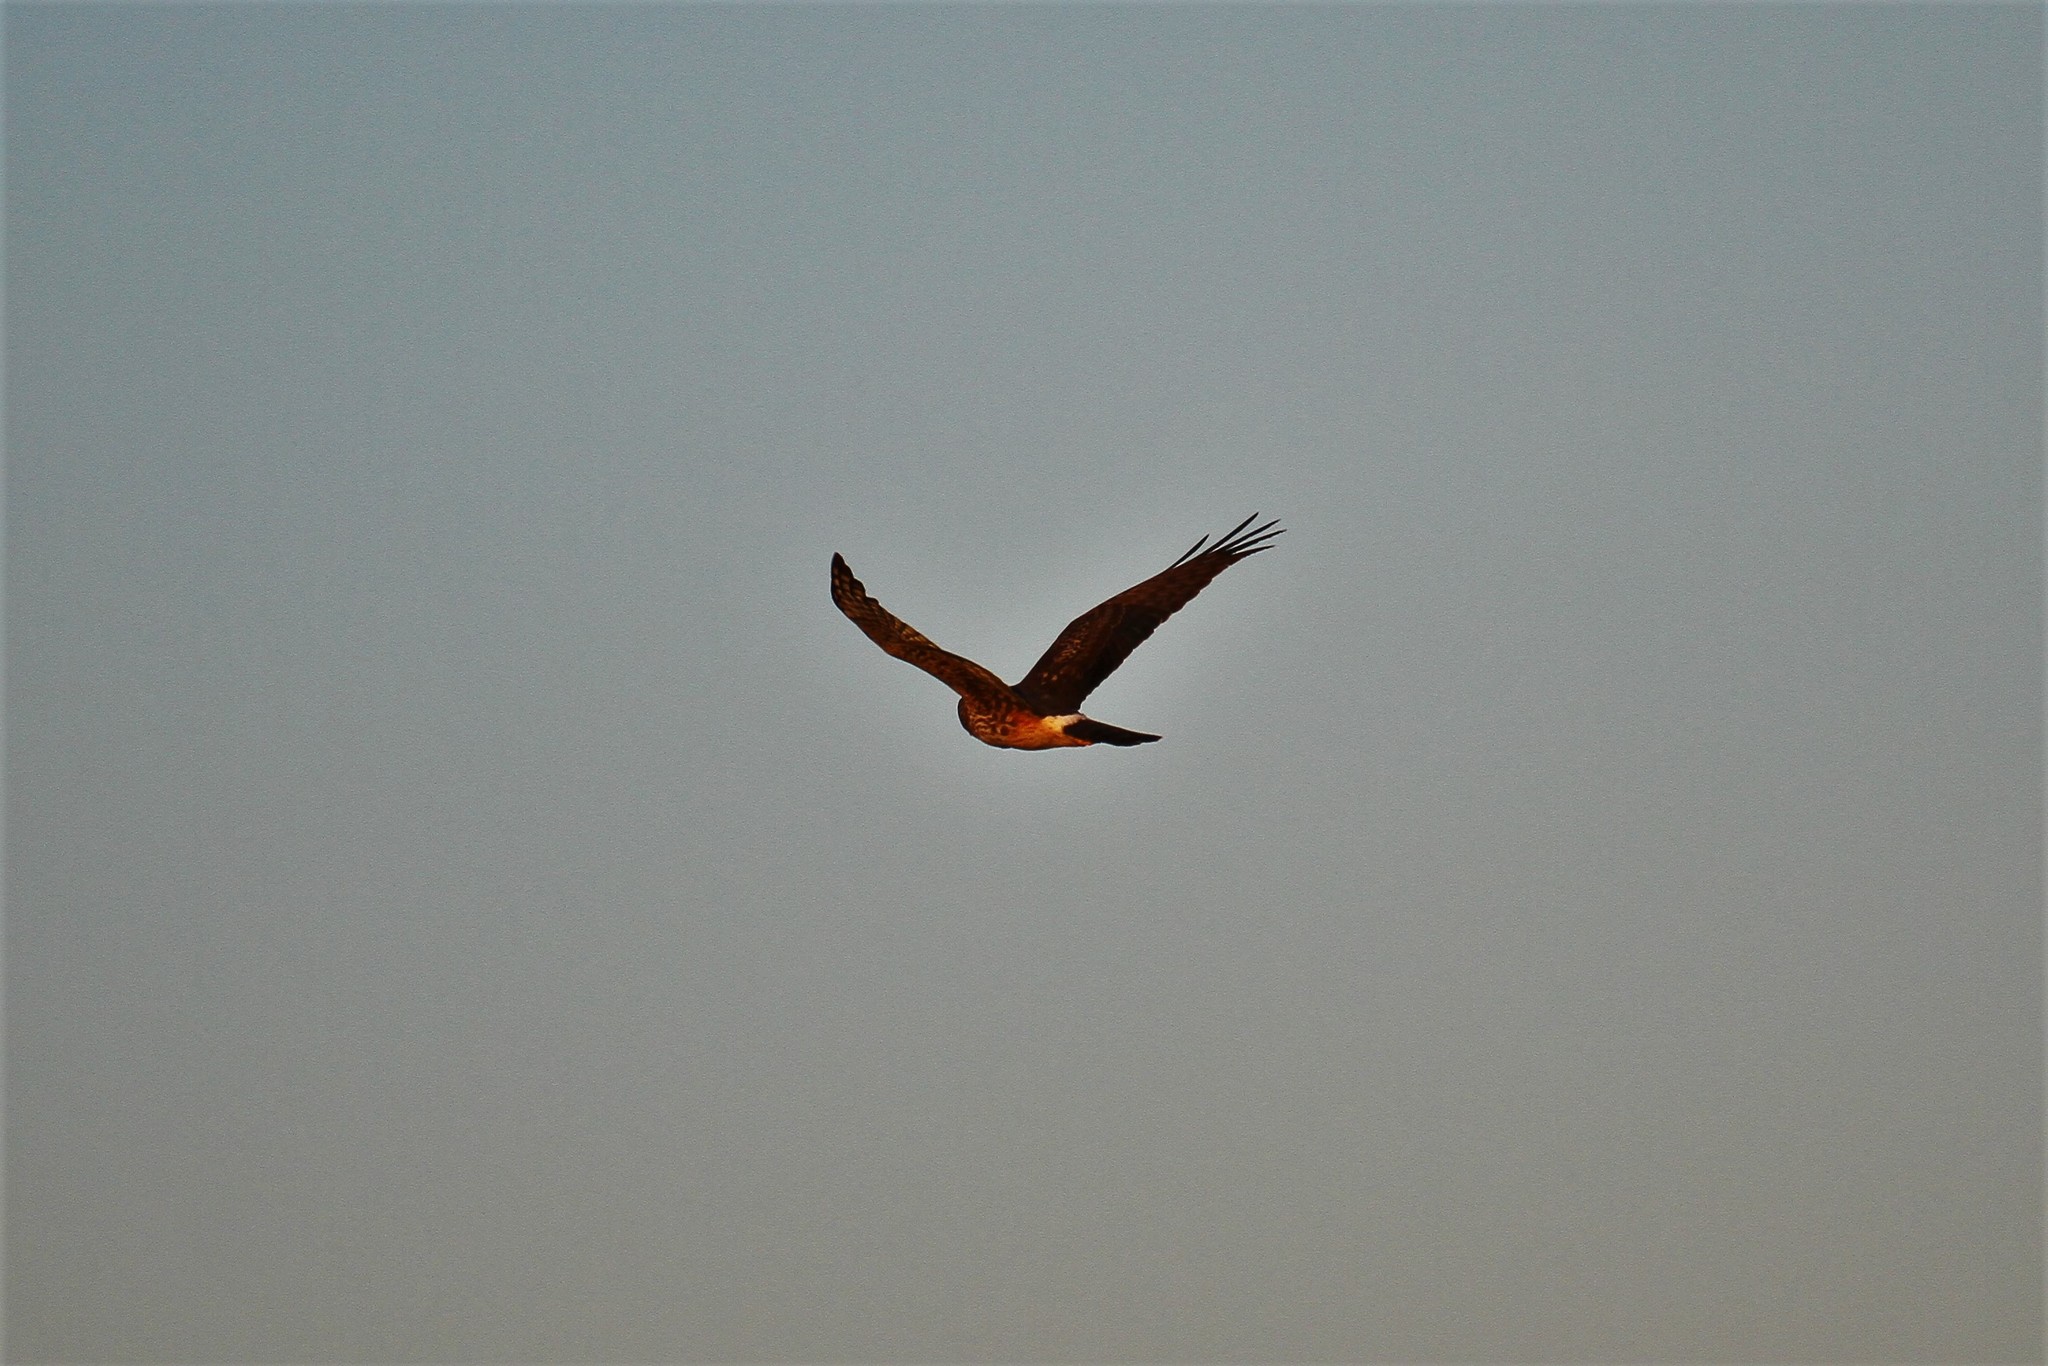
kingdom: Animalia
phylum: Chordata
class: Aves
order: Accipitriformes
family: Accipitridae
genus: Circus
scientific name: Circus cyaneus
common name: Hen harrier
